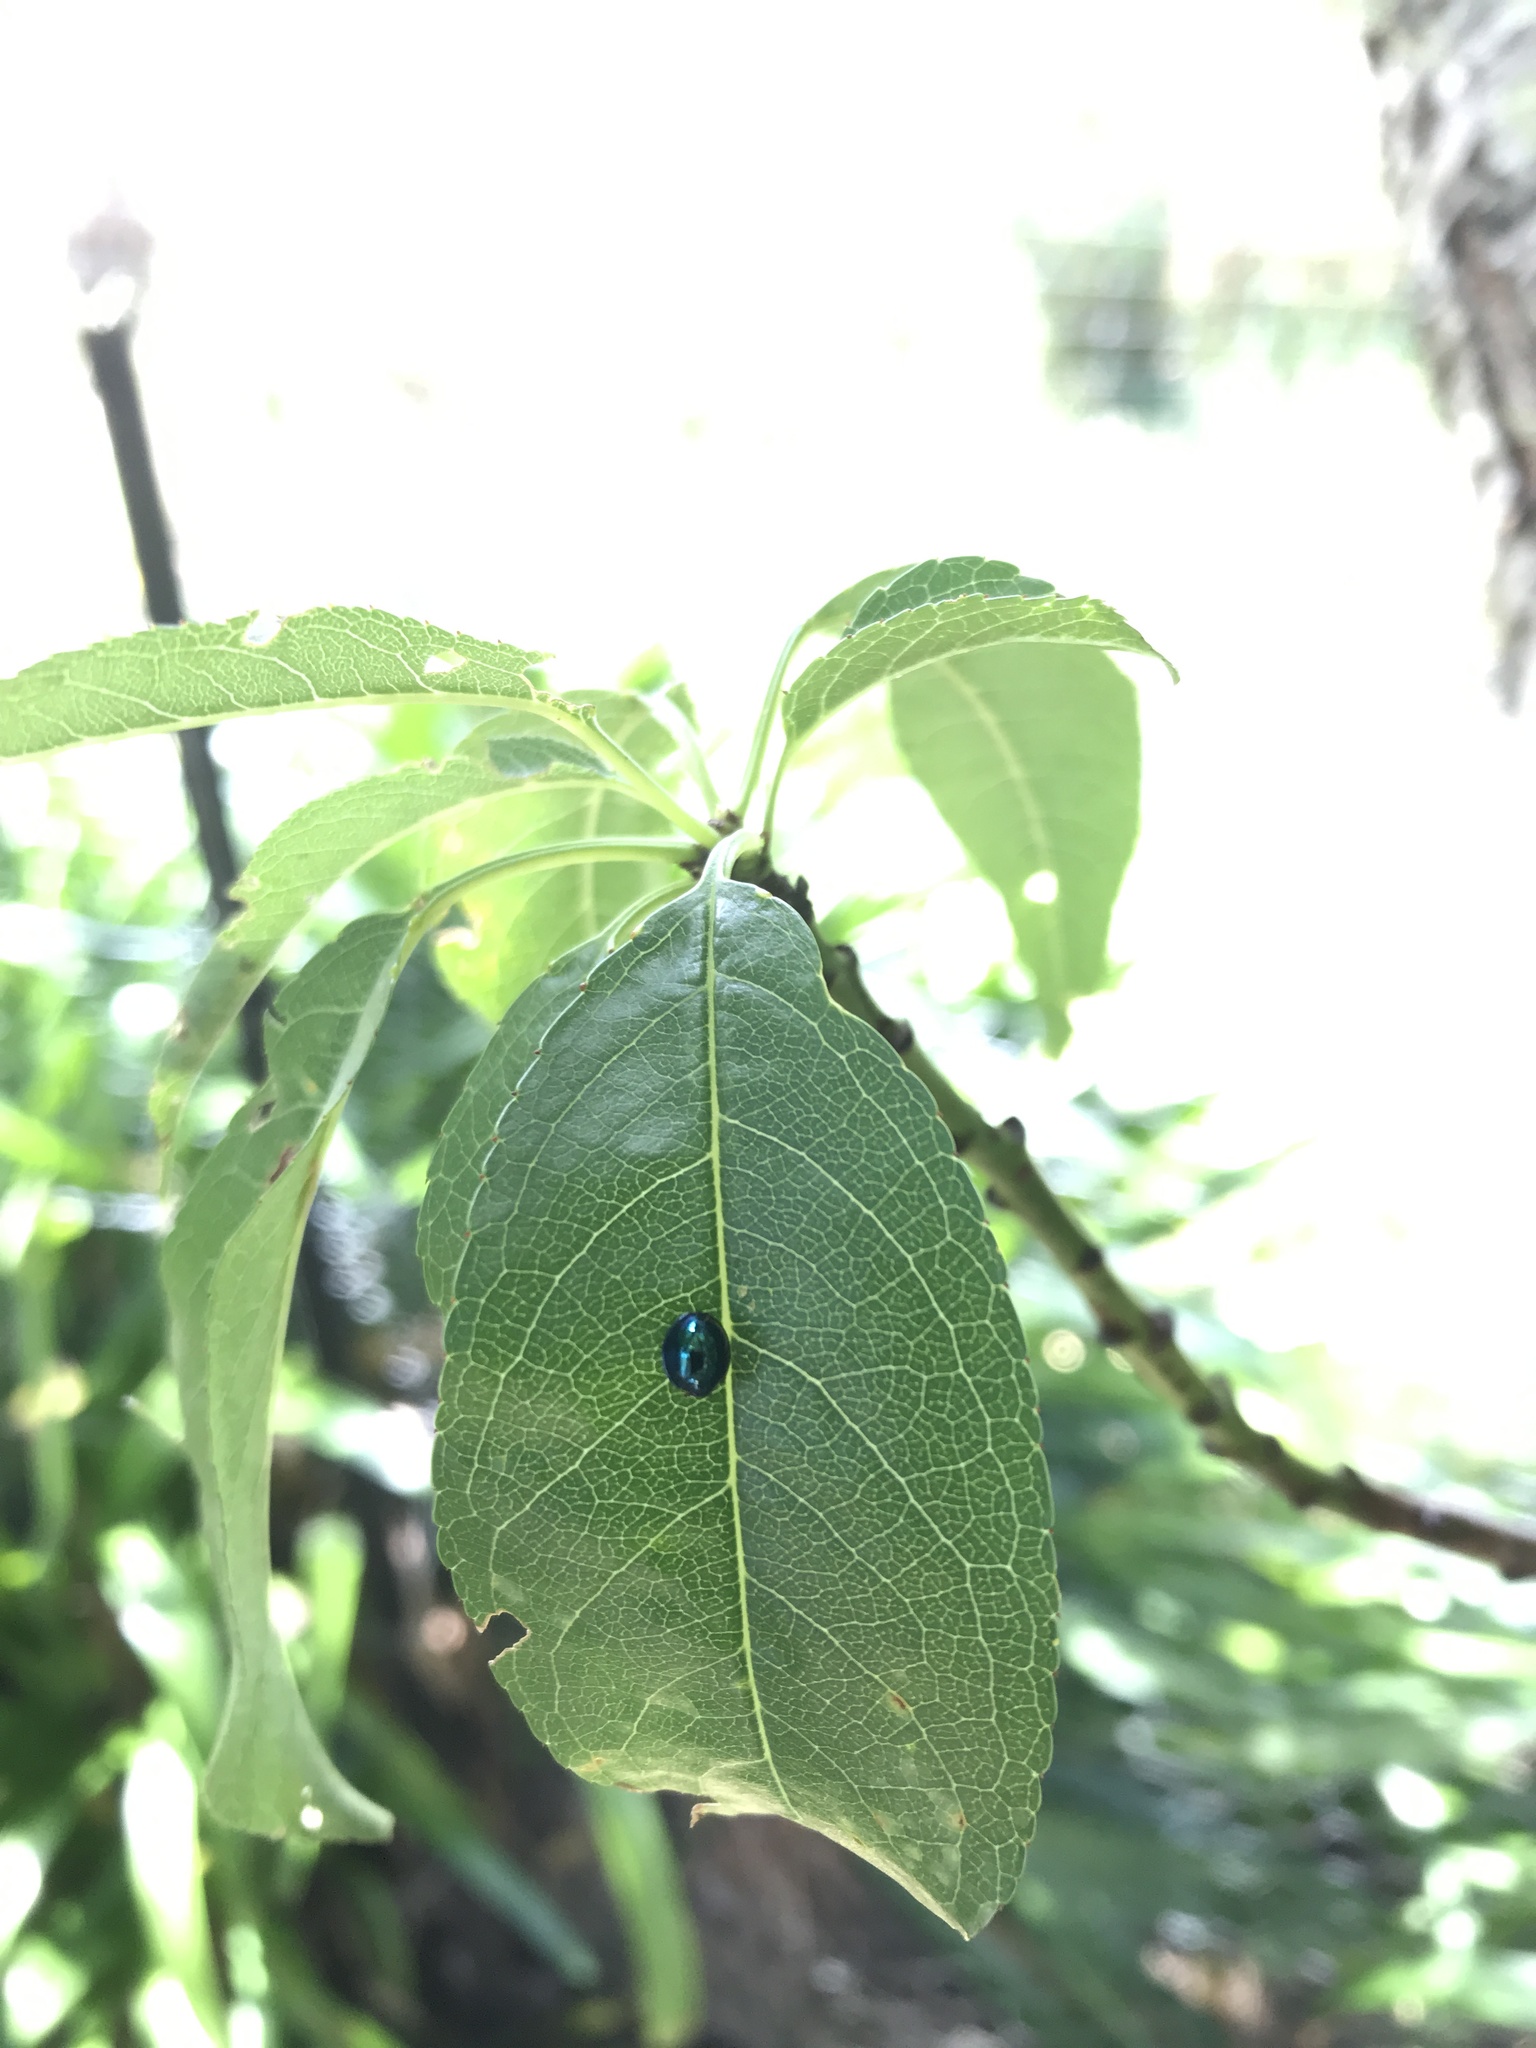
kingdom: Animalia
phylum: Arthropoda
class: Insecta
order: Coleoptera
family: Coccinellidae
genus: Halmus
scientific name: Halmus chalybeus
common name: Steel blue ladybird beetle
